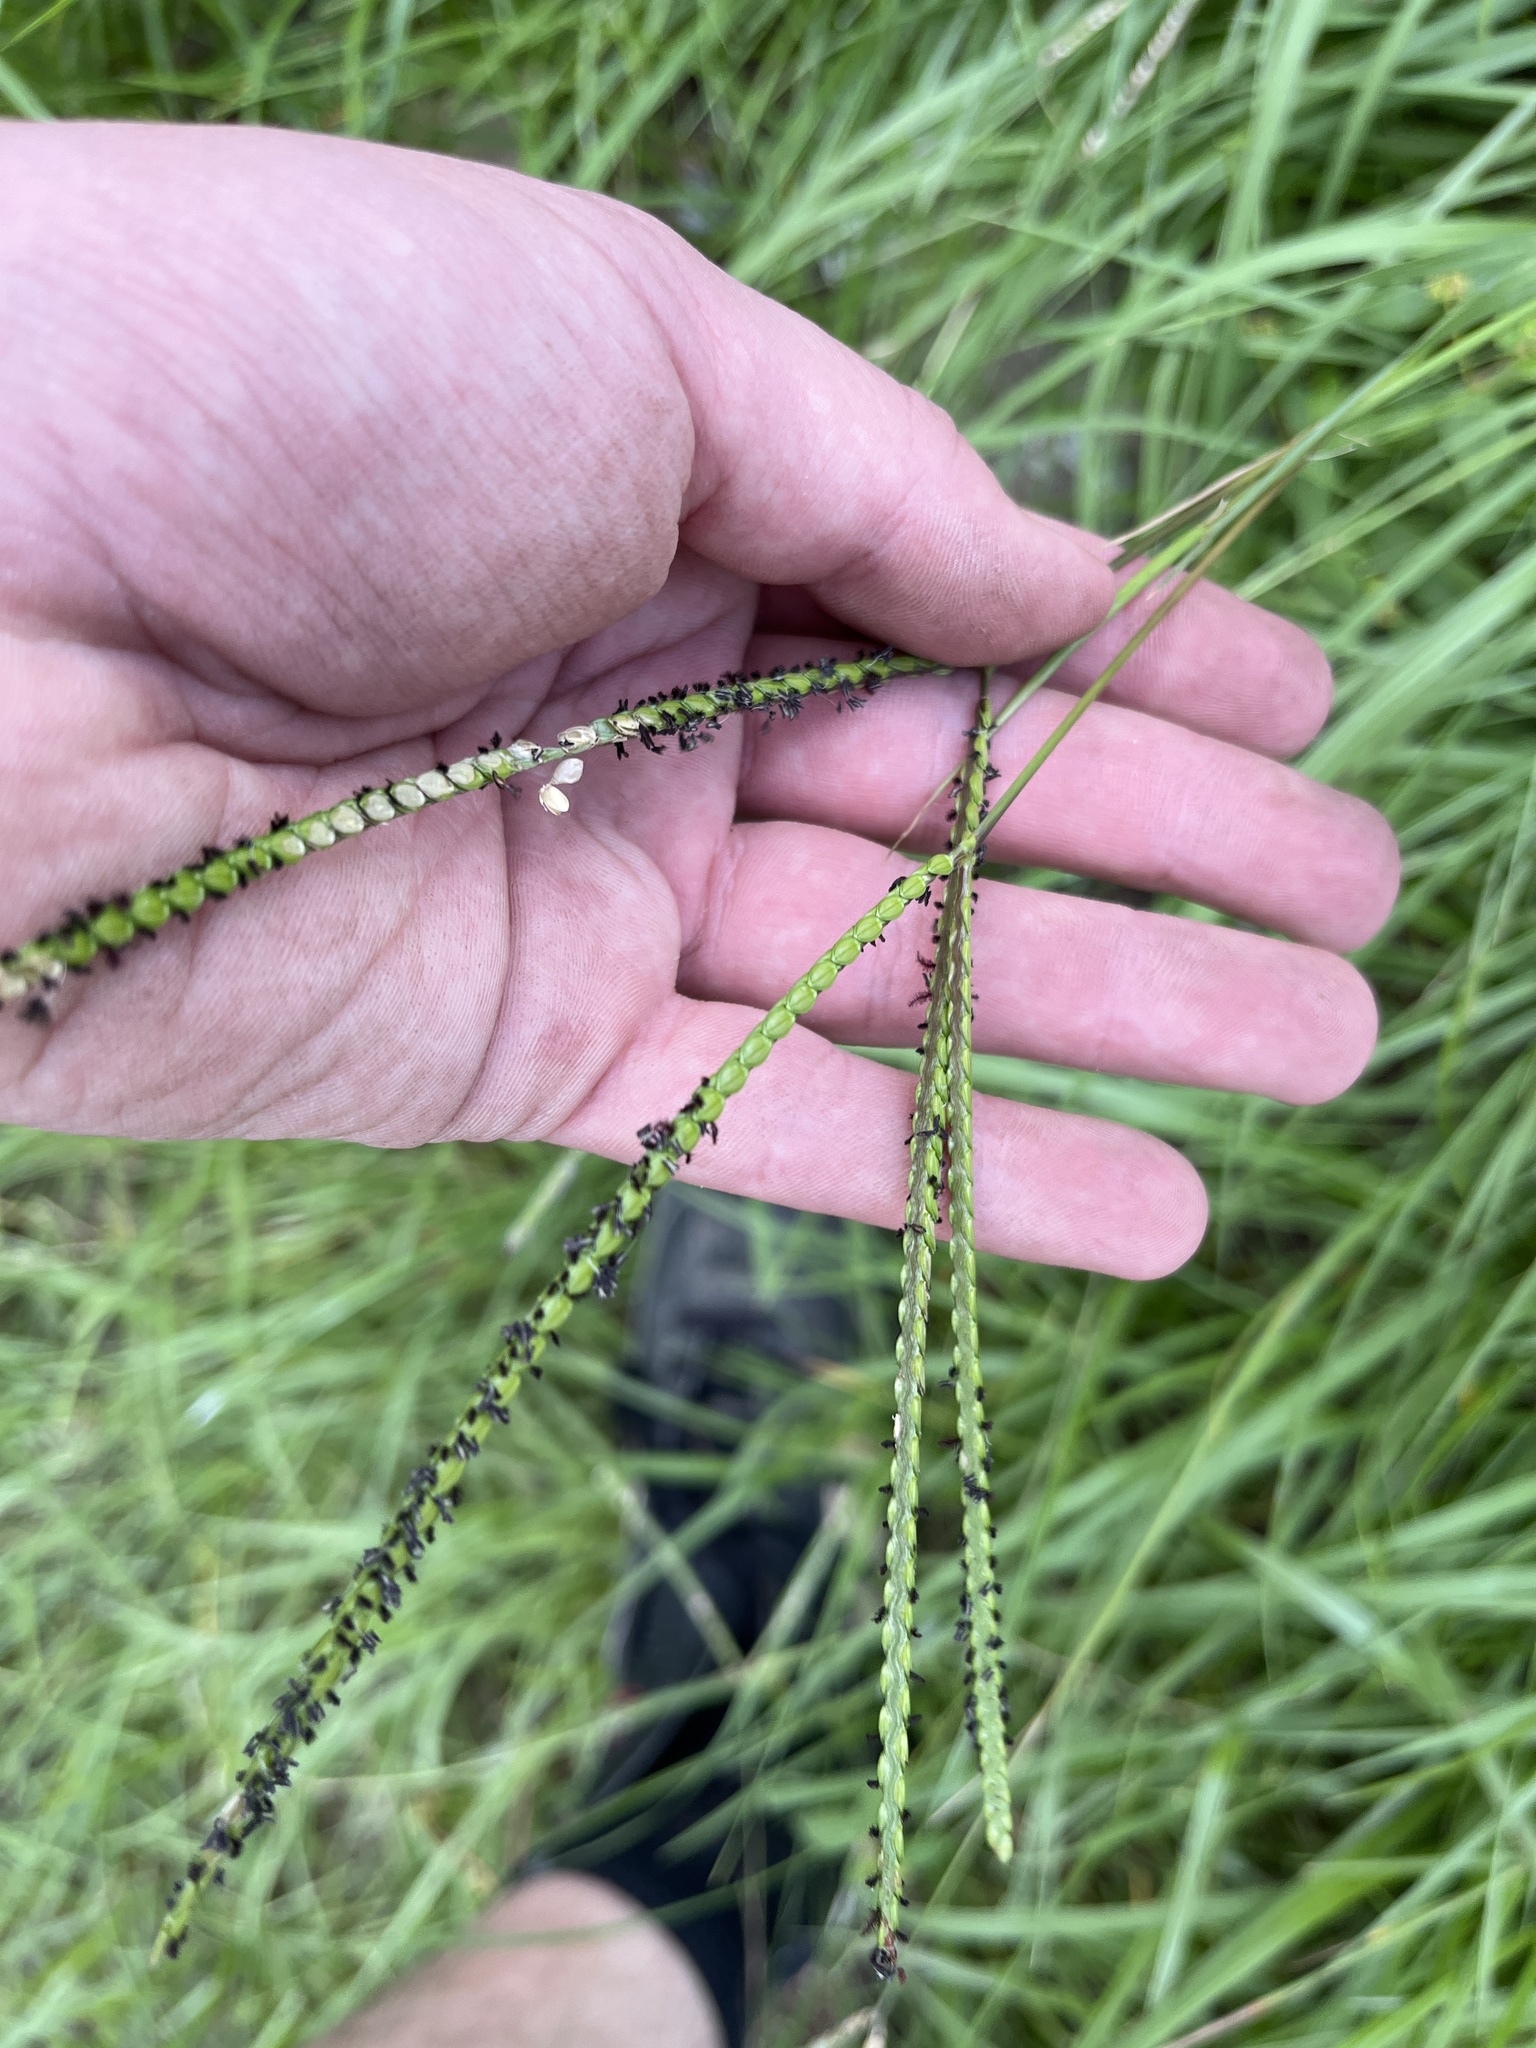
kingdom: Plantae
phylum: Tracheophyta
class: Liliopsida
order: Poales
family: Poaceae
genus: Paspalum
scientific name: Paspalum notatum
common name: Bahiagrass
